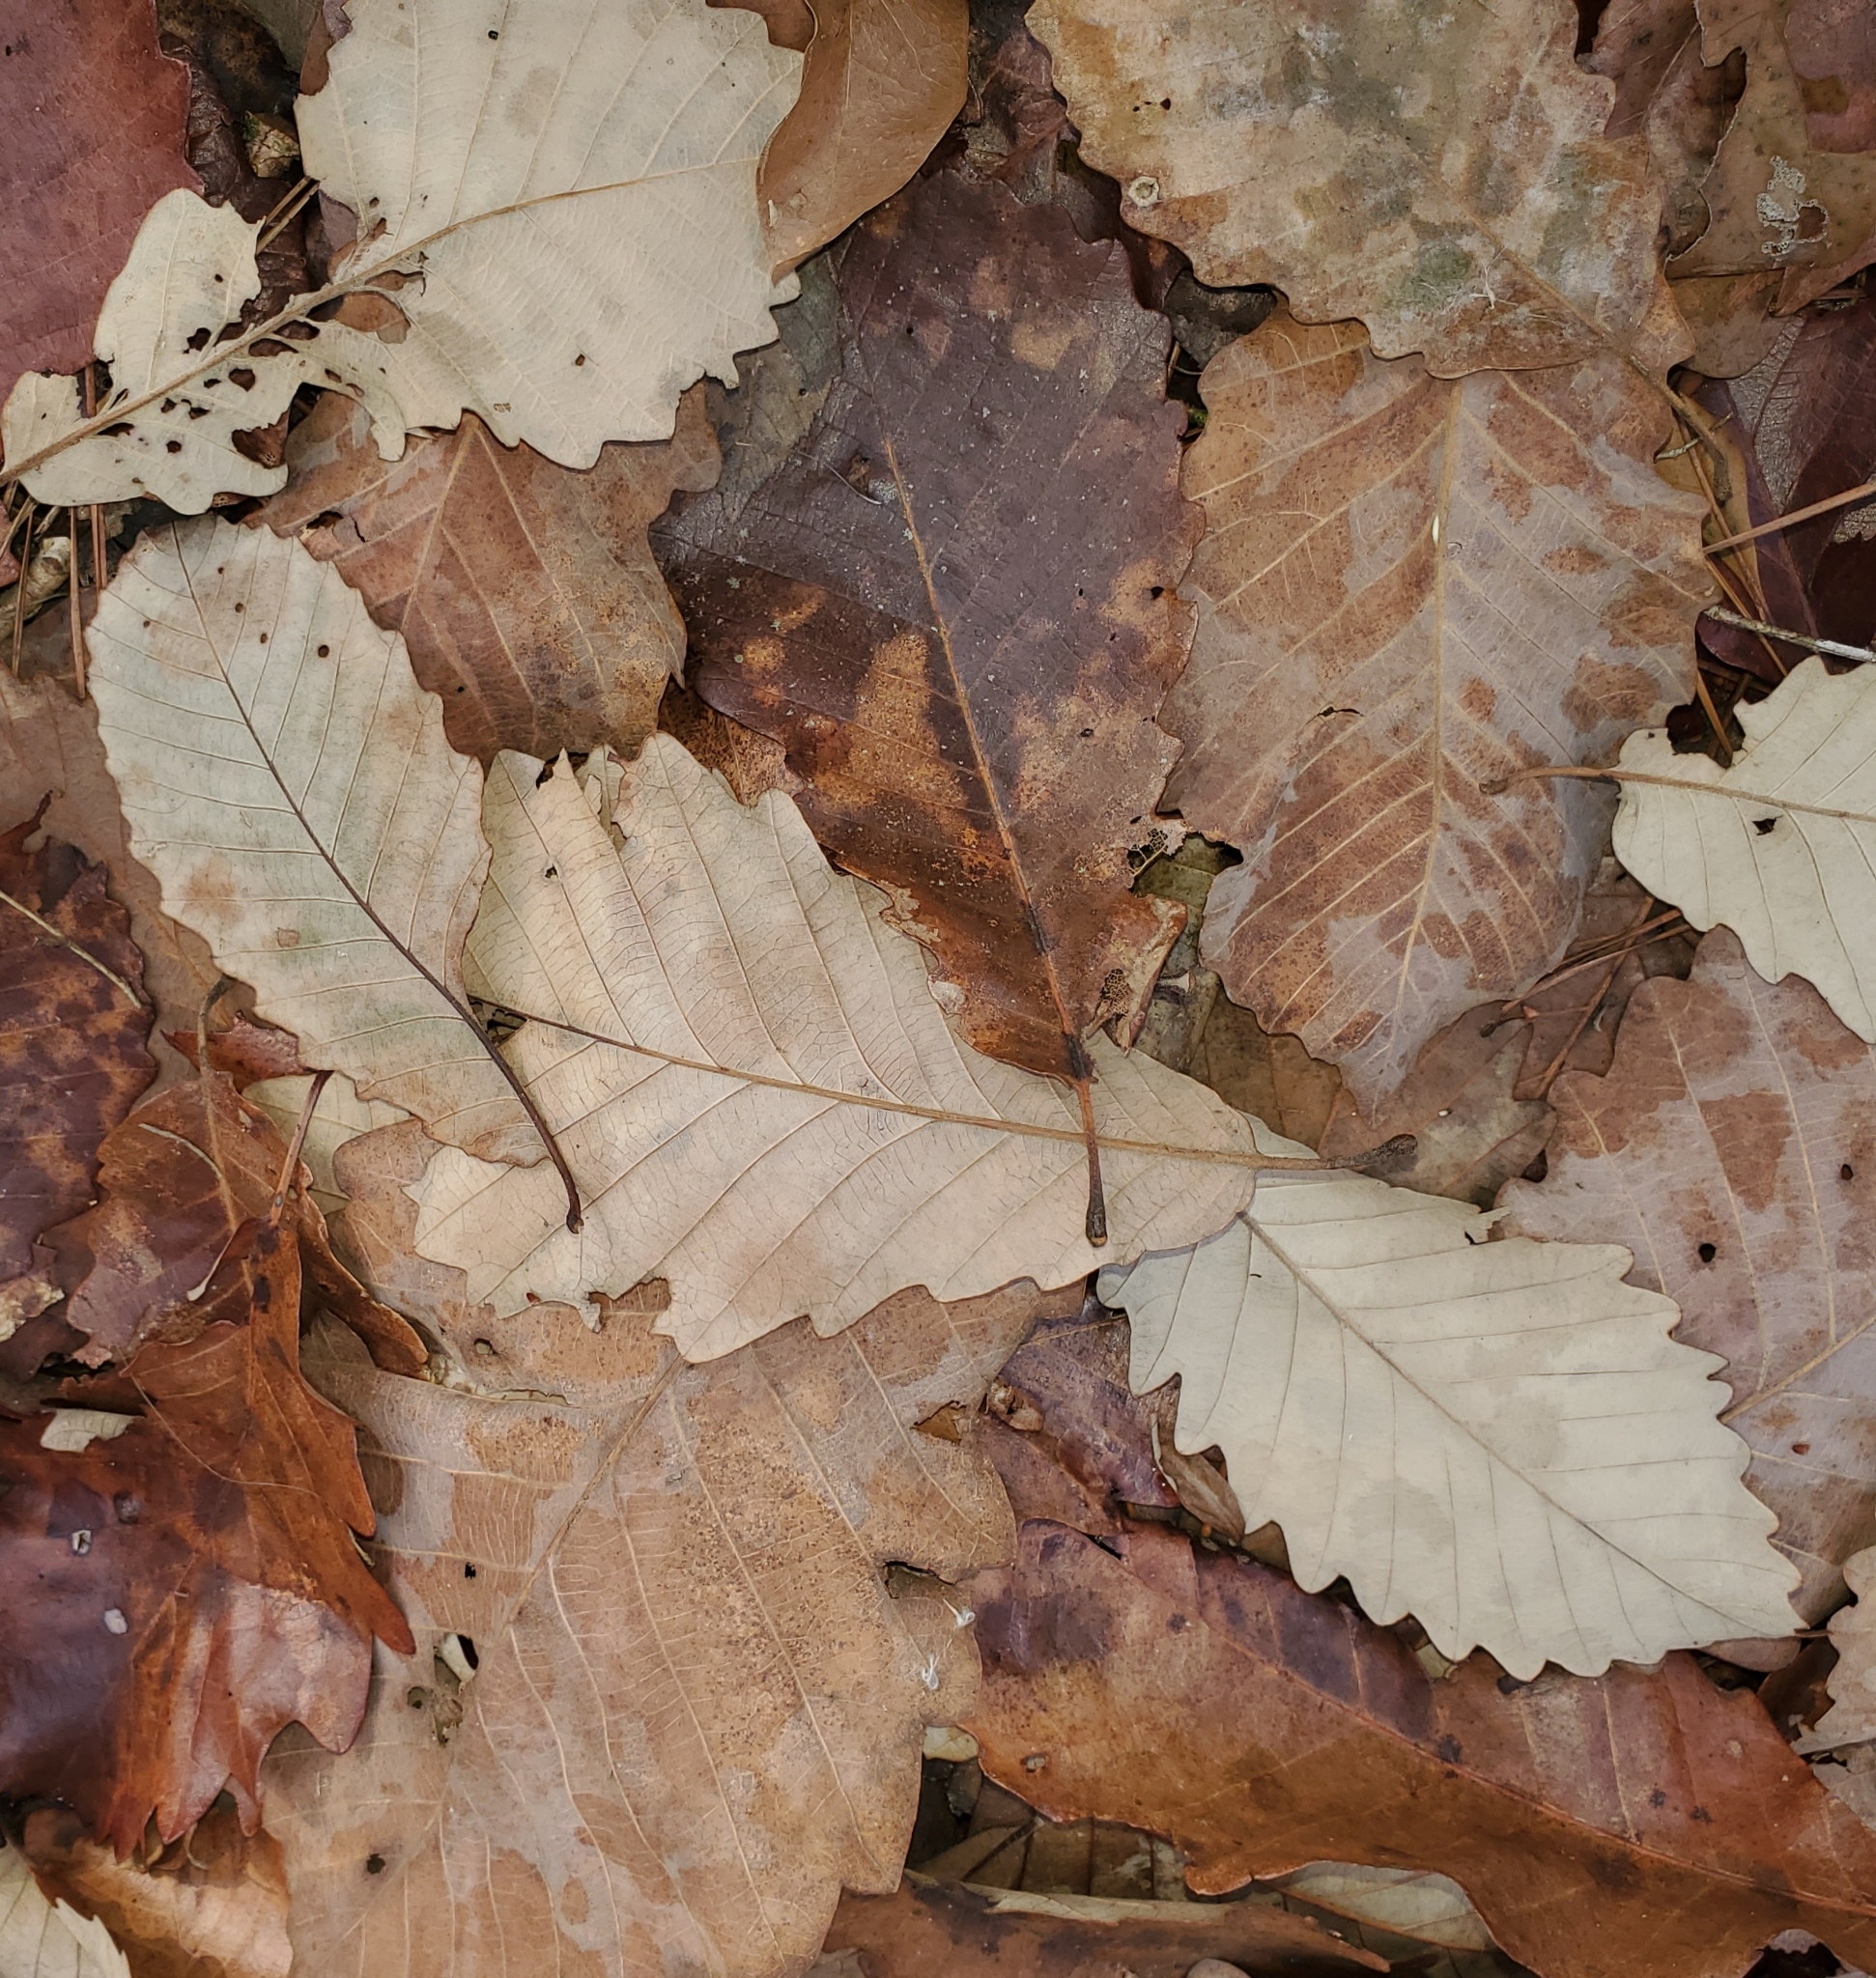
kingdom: Plantae
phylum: Tracheophyta
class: Magnoliopsida
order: Fagales
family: Fagaceae
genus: Quercus
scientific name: Quercus michauxii
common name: Swamp chestnut oak
